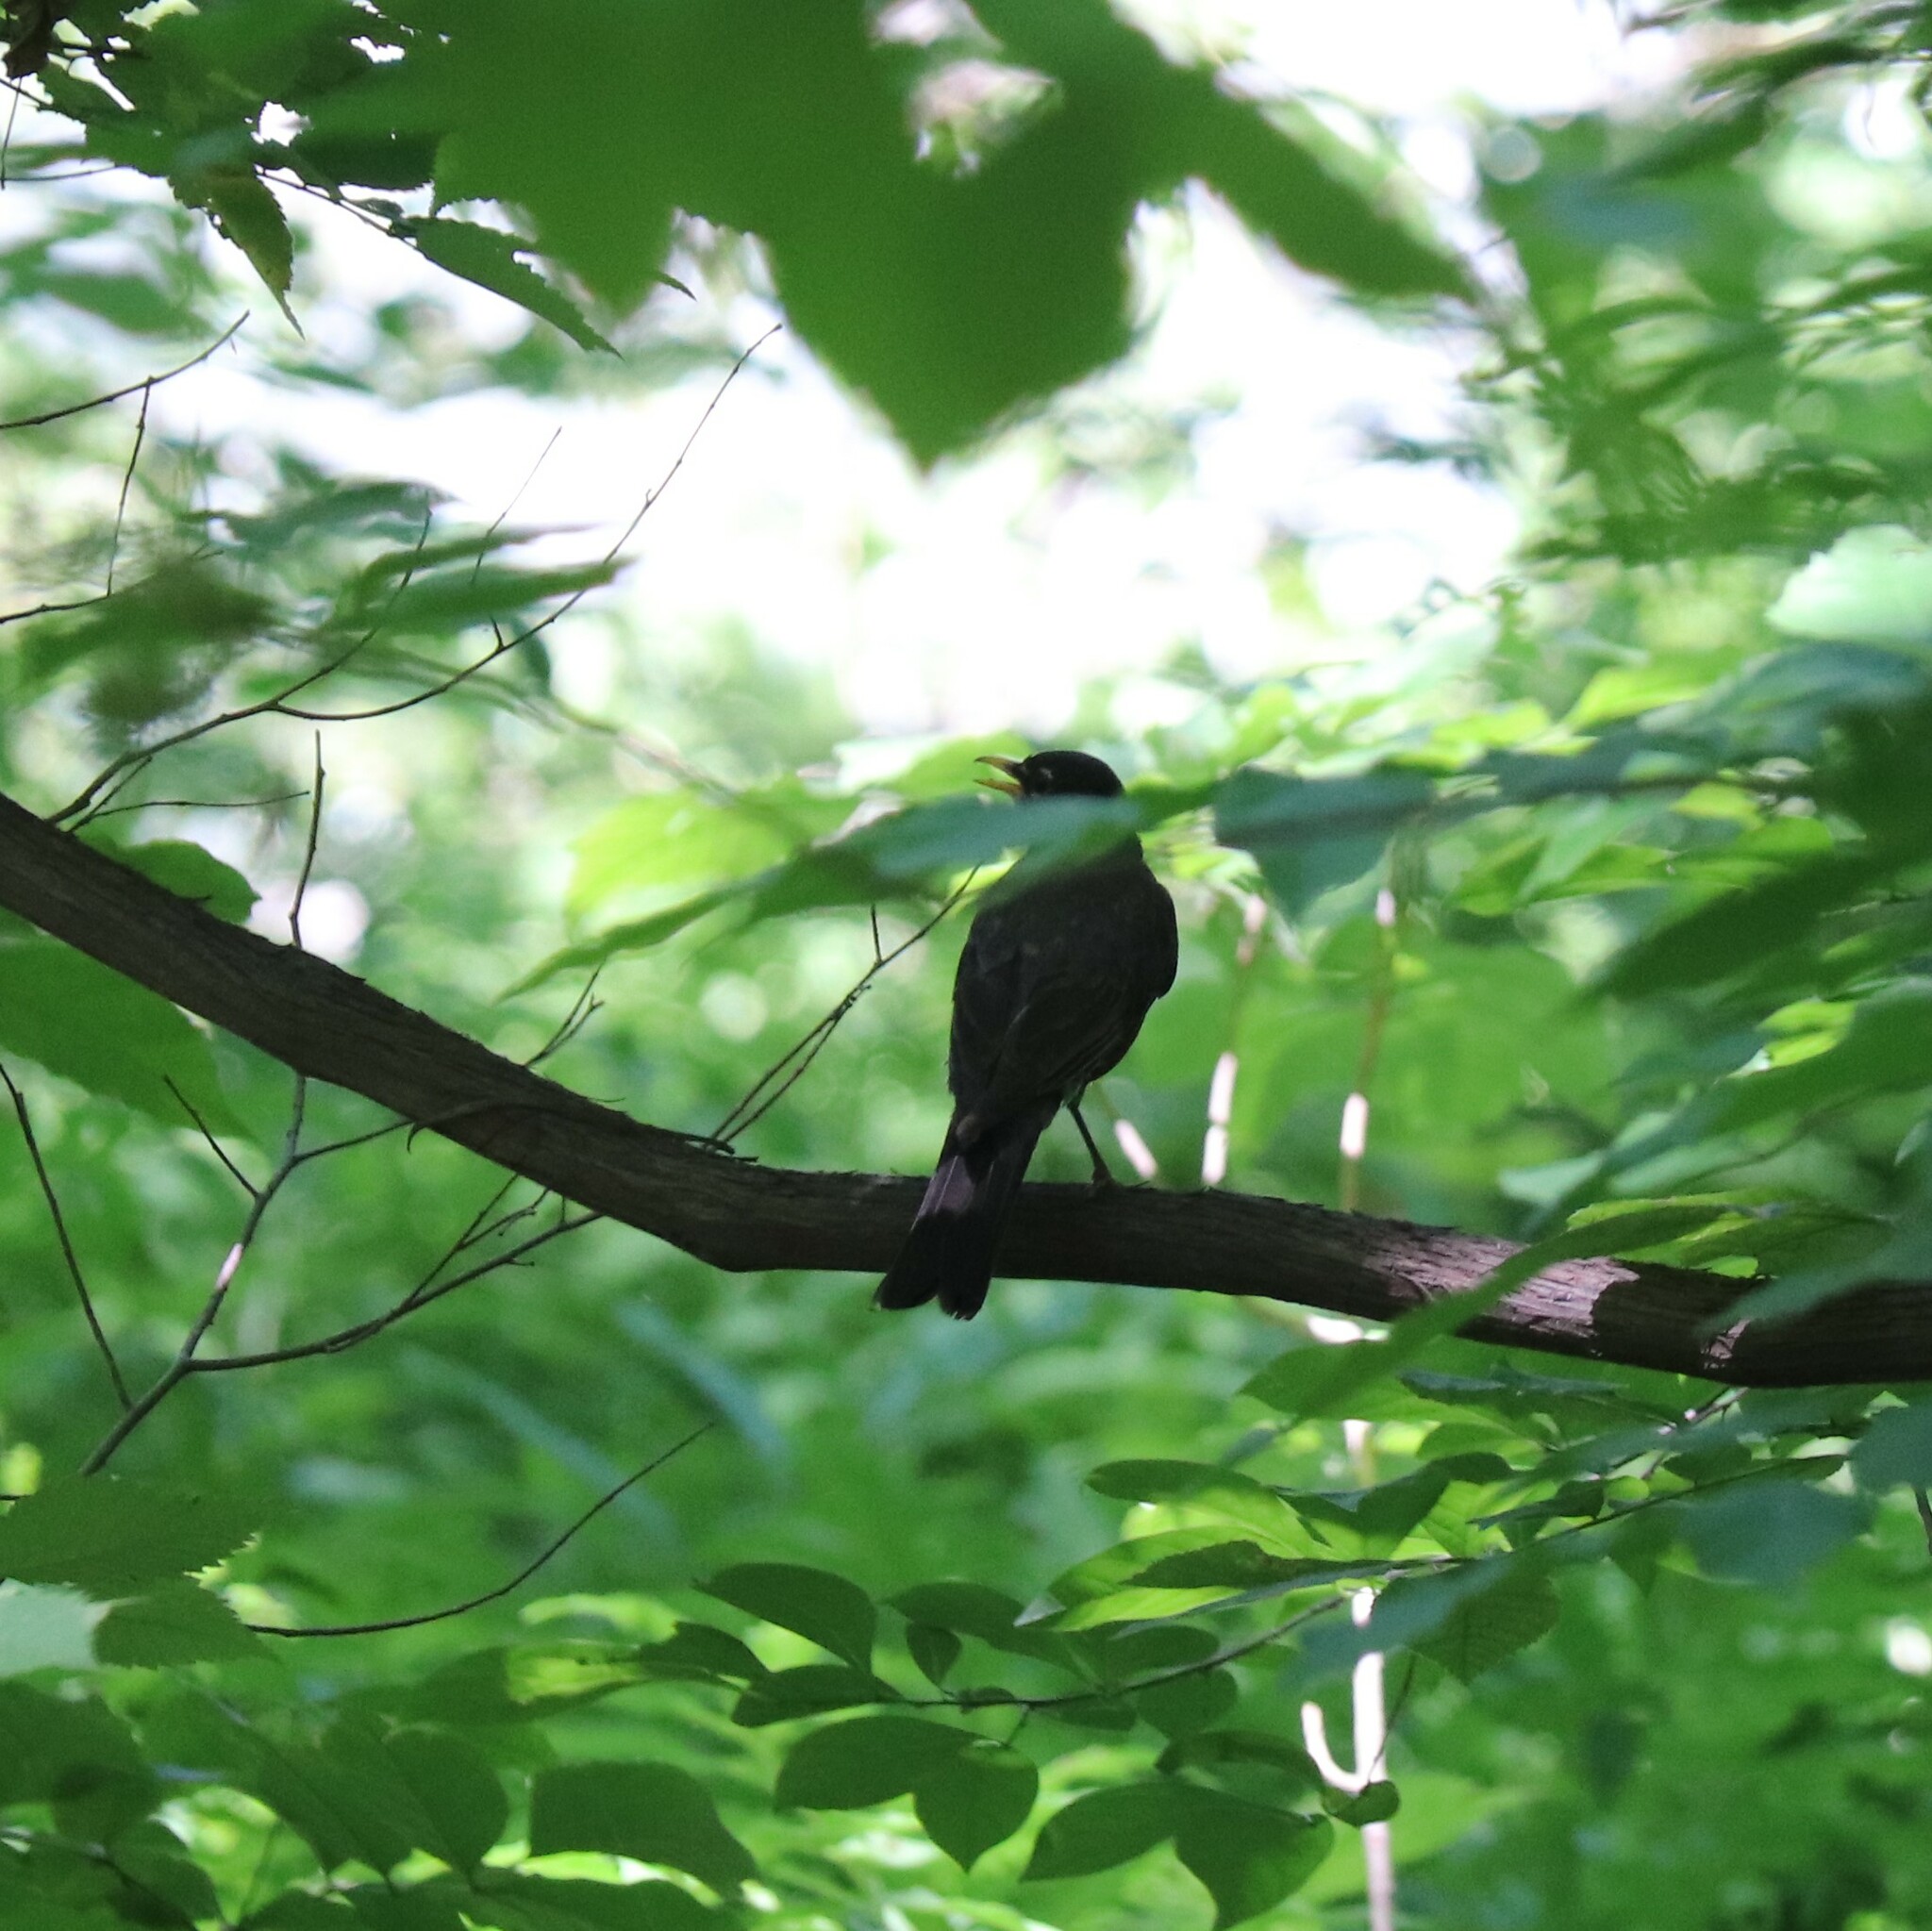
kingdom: Animalia
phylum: Chordata
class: Aves
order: Passeriformes
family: Turdidae
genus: Turdus
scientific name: Turdus migratorius
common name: American robin
